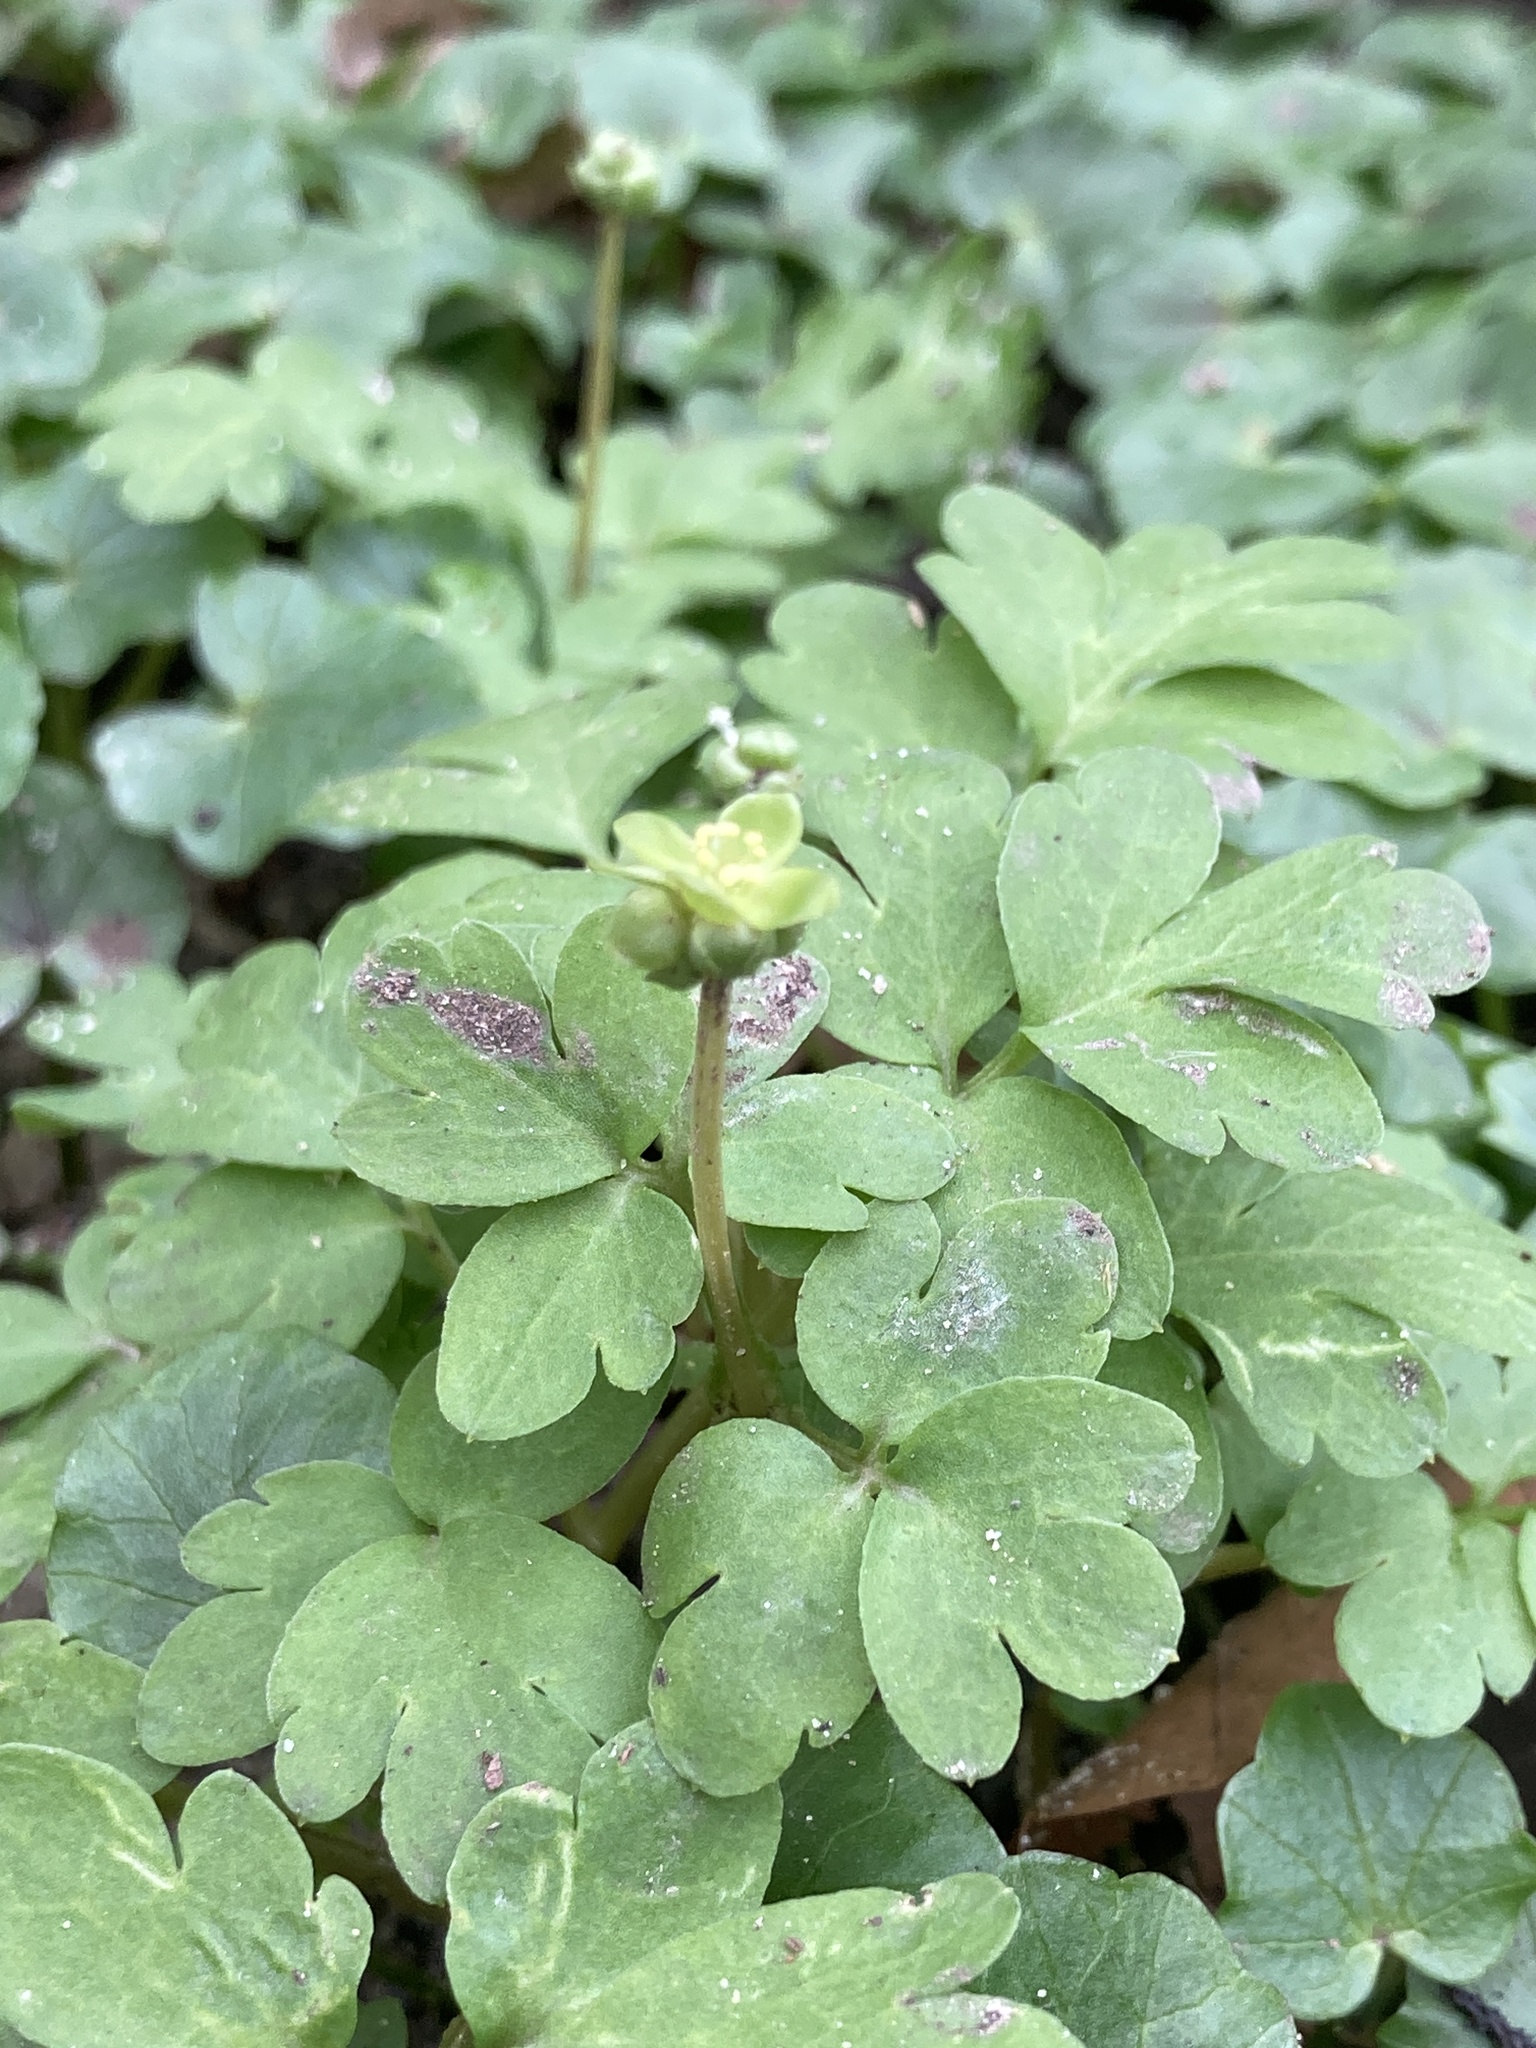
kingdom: Plantae
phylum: Tracheophyta
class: Magnoliopsida
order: Dipsacales
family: Viburnaceae
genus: Adoxa
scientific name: Adoxa moschatellina
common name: Moschatel
